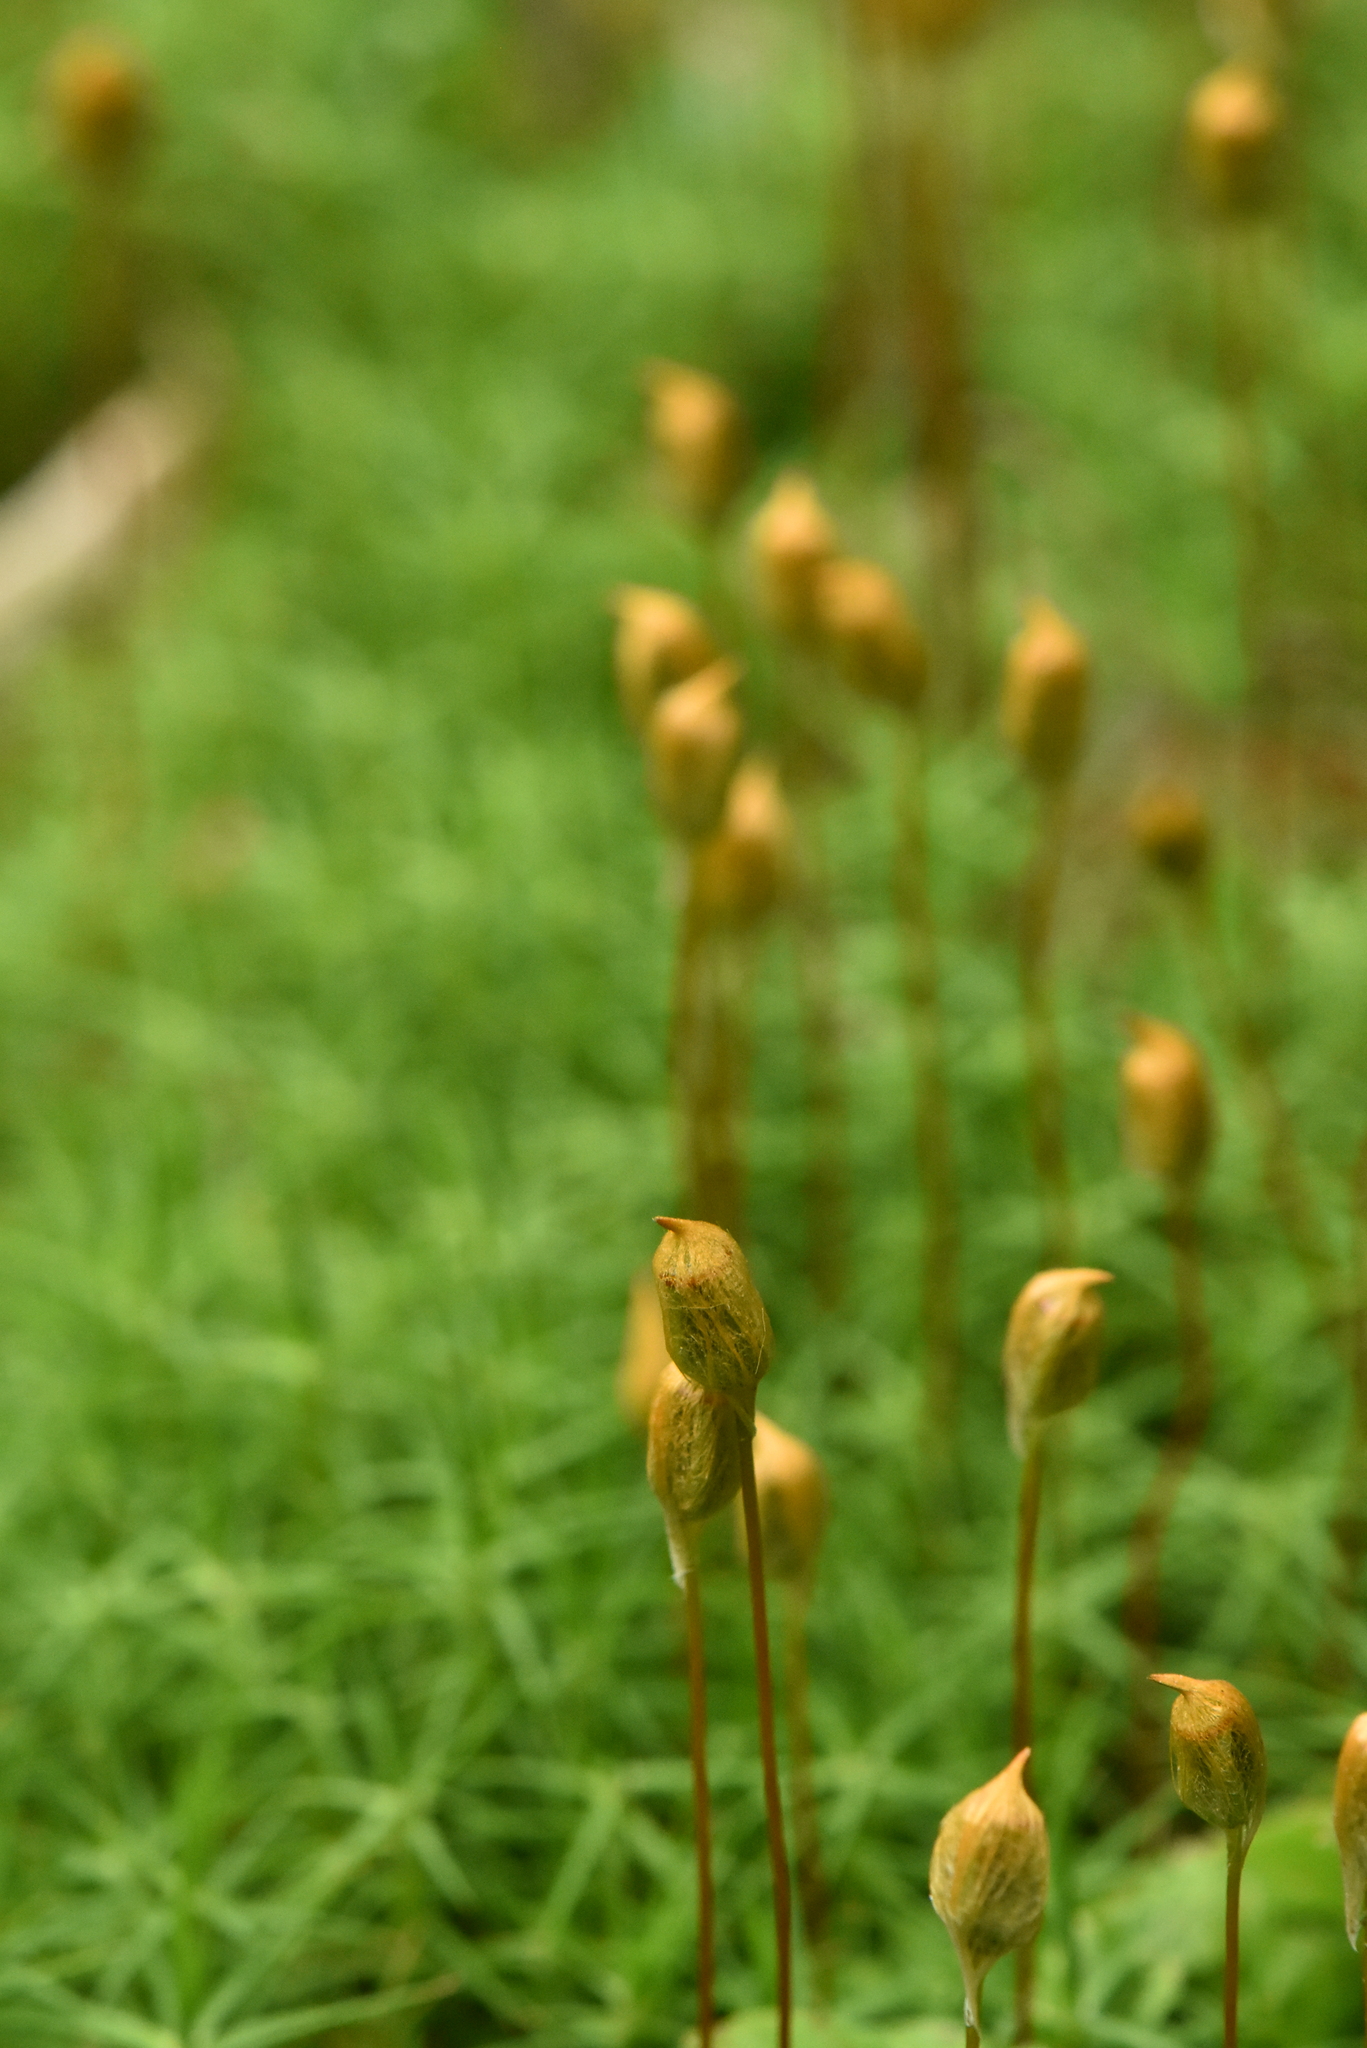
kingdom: Plantae
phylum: Bryophyta
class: Polytrichopsida
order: Polytrichales
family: Polytrichaceae
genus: Polytrichum
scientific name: Polytrichum commune
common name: Common haircap
